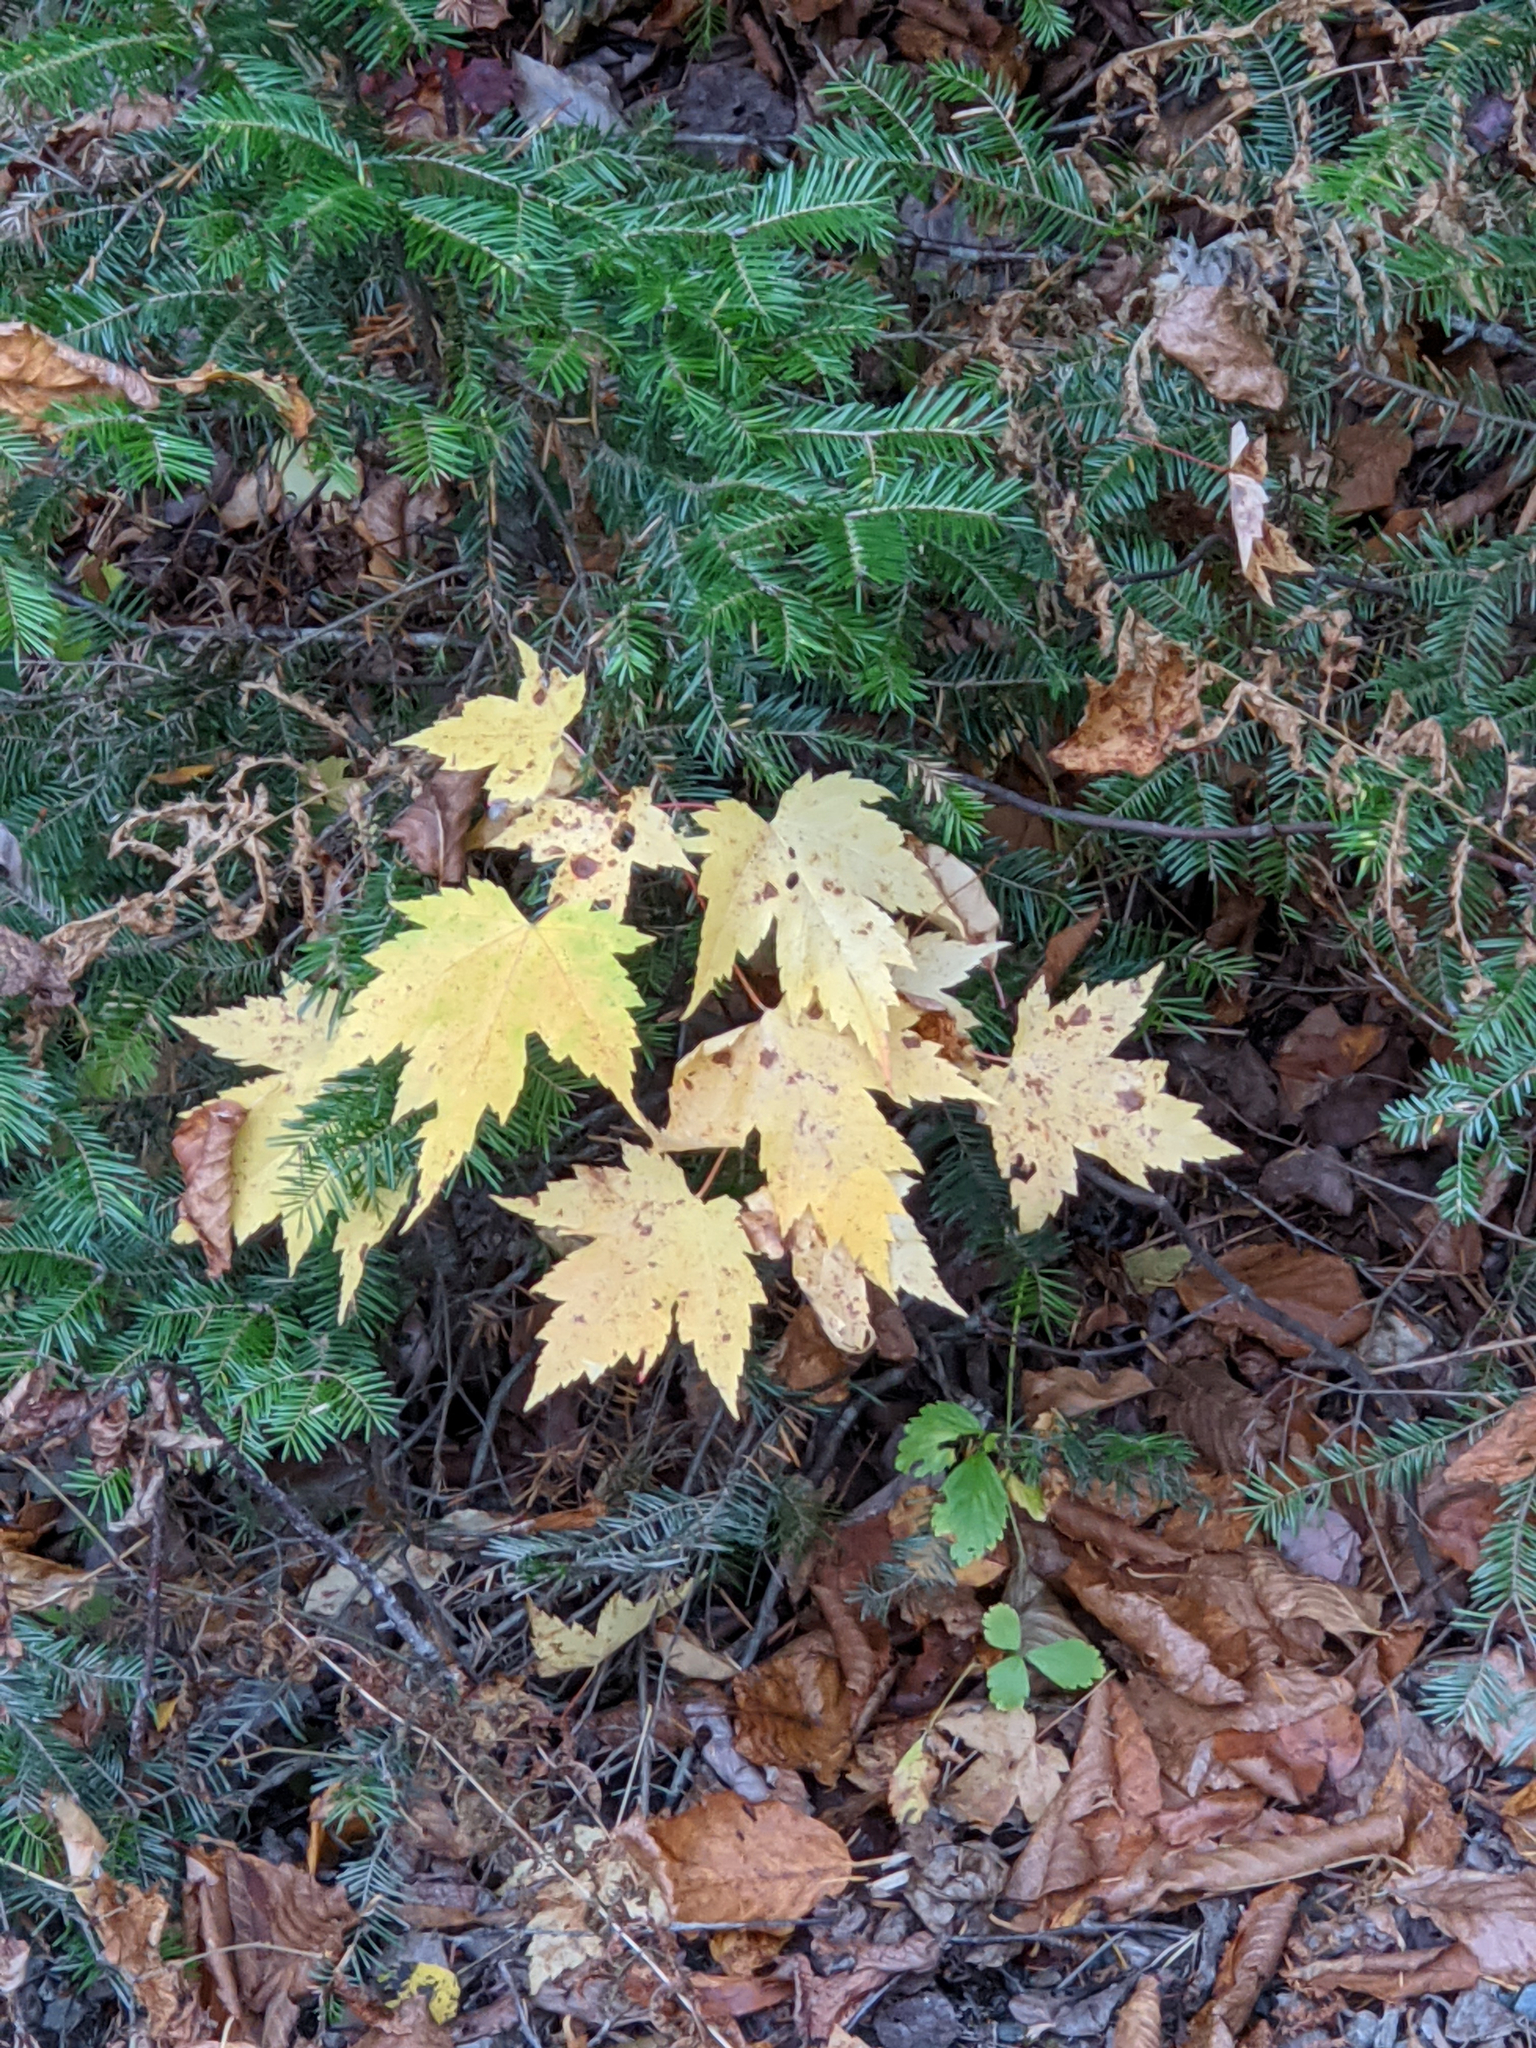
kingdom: Plantae
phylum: Tracheophyta
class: Magnoliopsida
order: Sapindales
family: Sapindaceae
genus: Acer
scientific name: Acer rubrum
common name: Red maple
